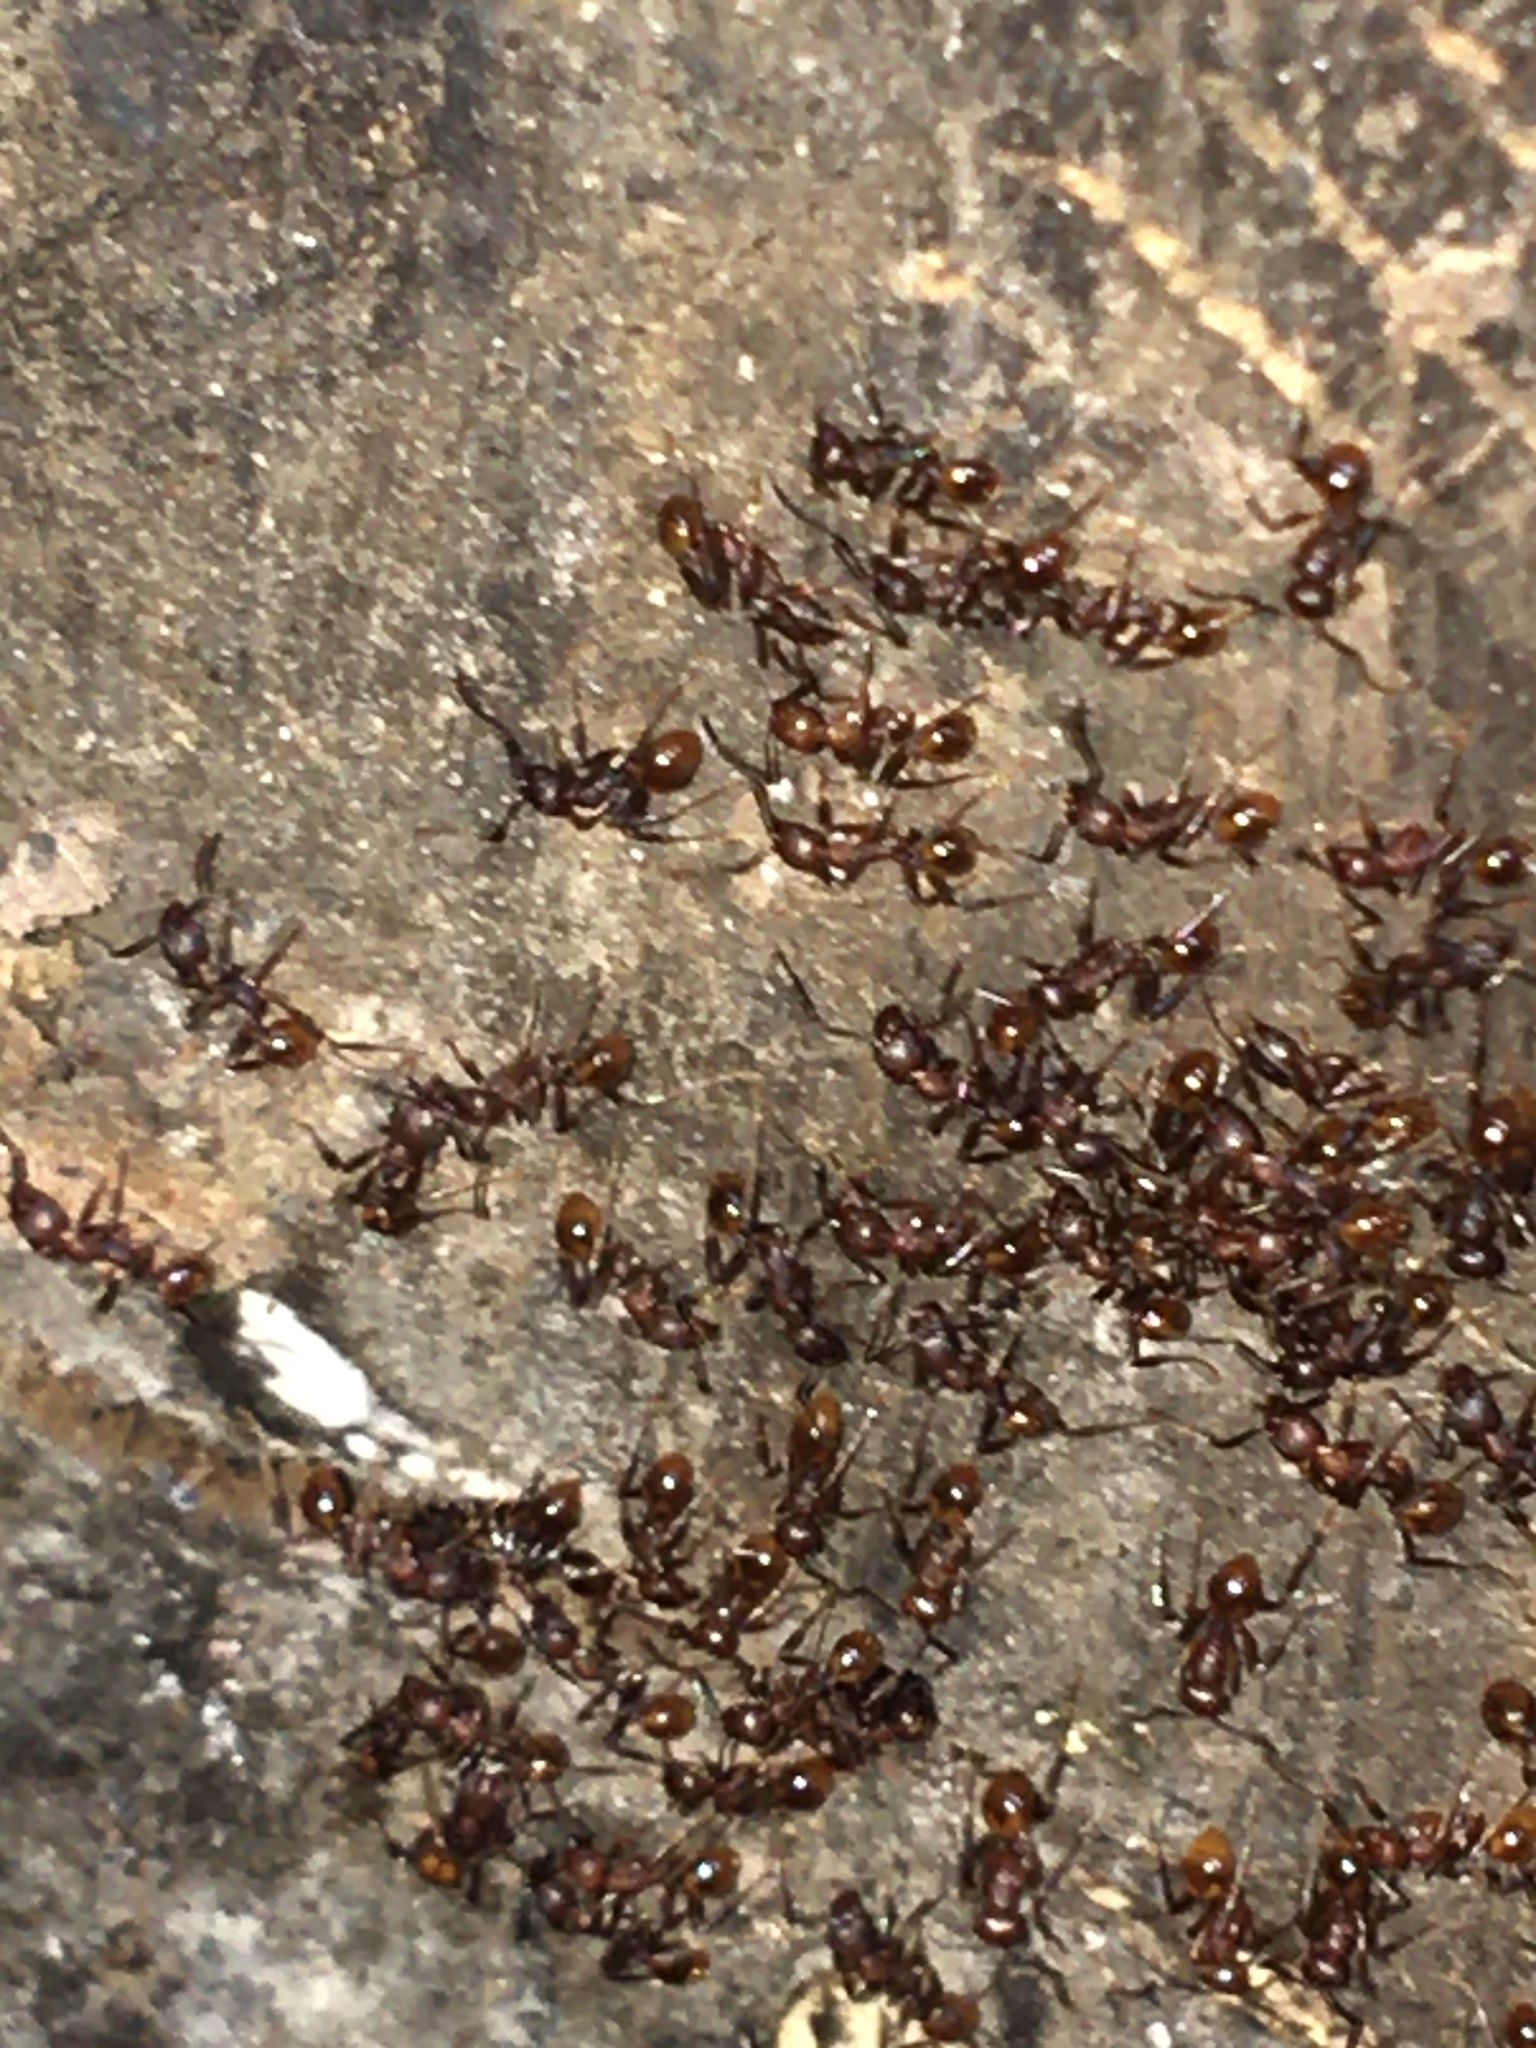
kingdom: Animalia
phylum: Arthropoda
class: Insecta
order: Hymenoptera
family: Formicidae
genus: Aphaenogaster
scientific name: Aphaenogaster fulva
